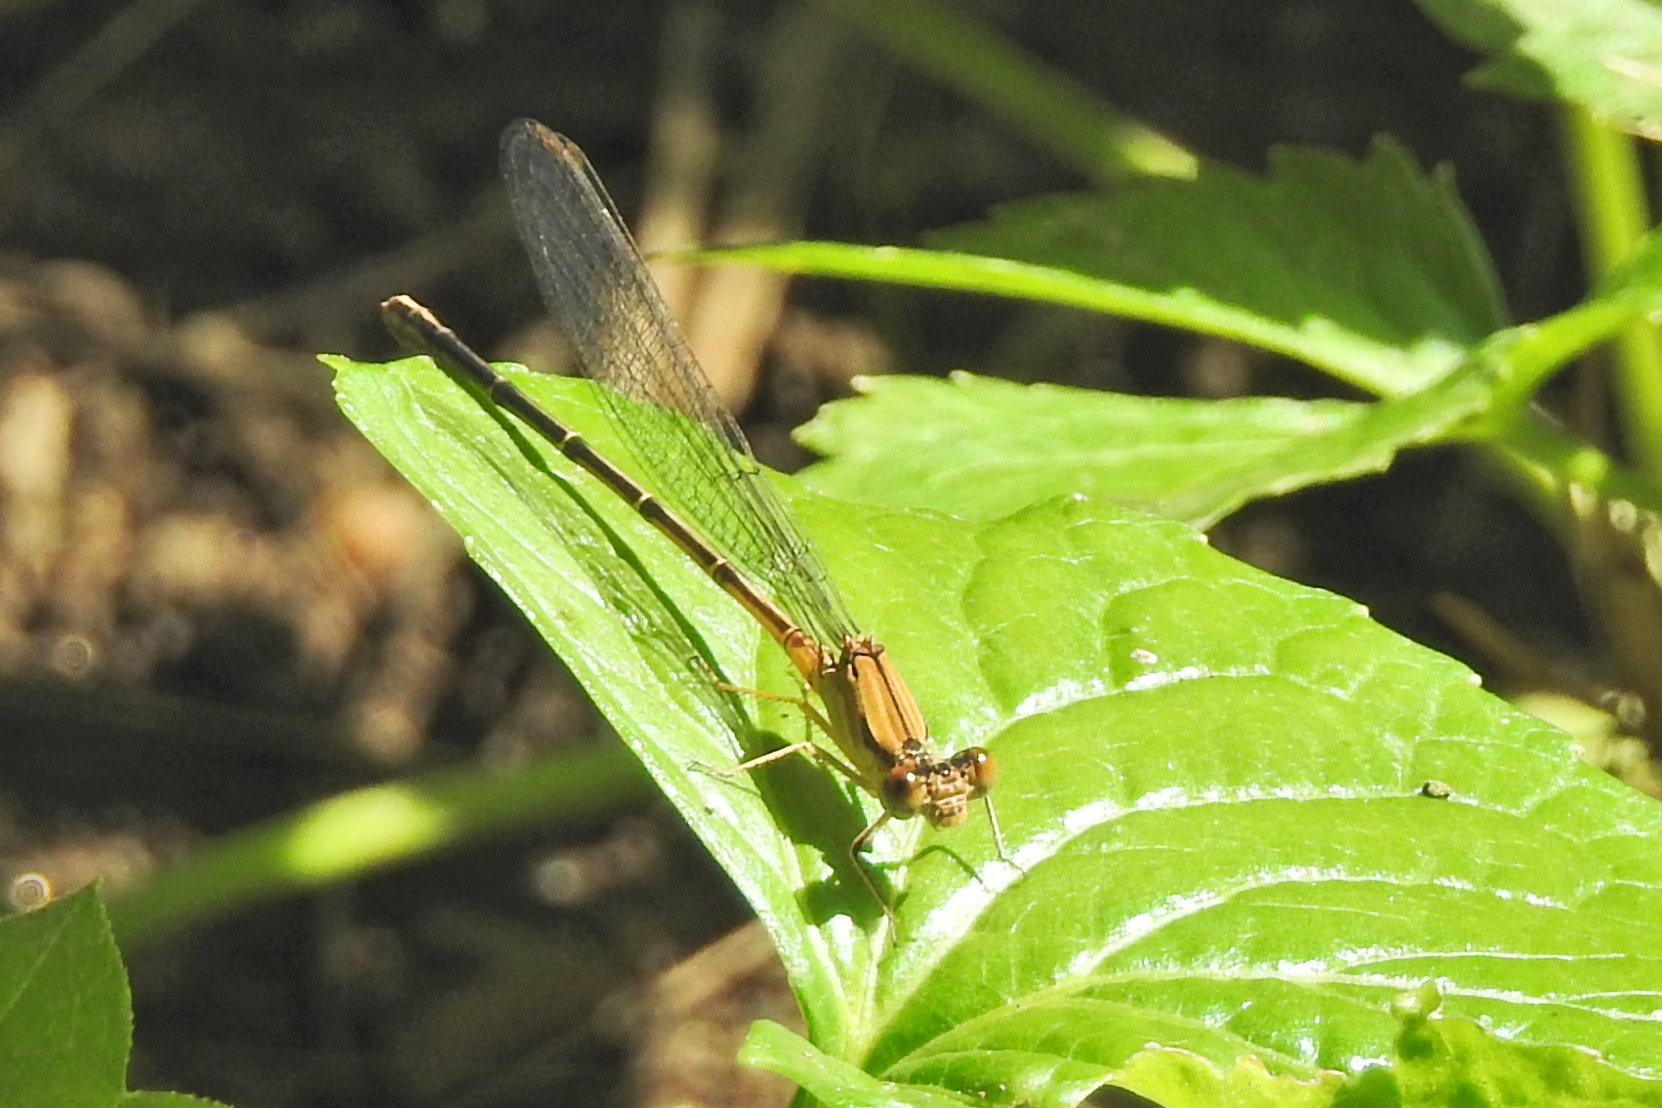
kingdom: Animalia
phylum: Arthropoda
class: Insecta
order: Odonata
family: Coenagrionidae
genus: Argia
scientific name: Argia apicalis
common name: Blue-fronted dancer
